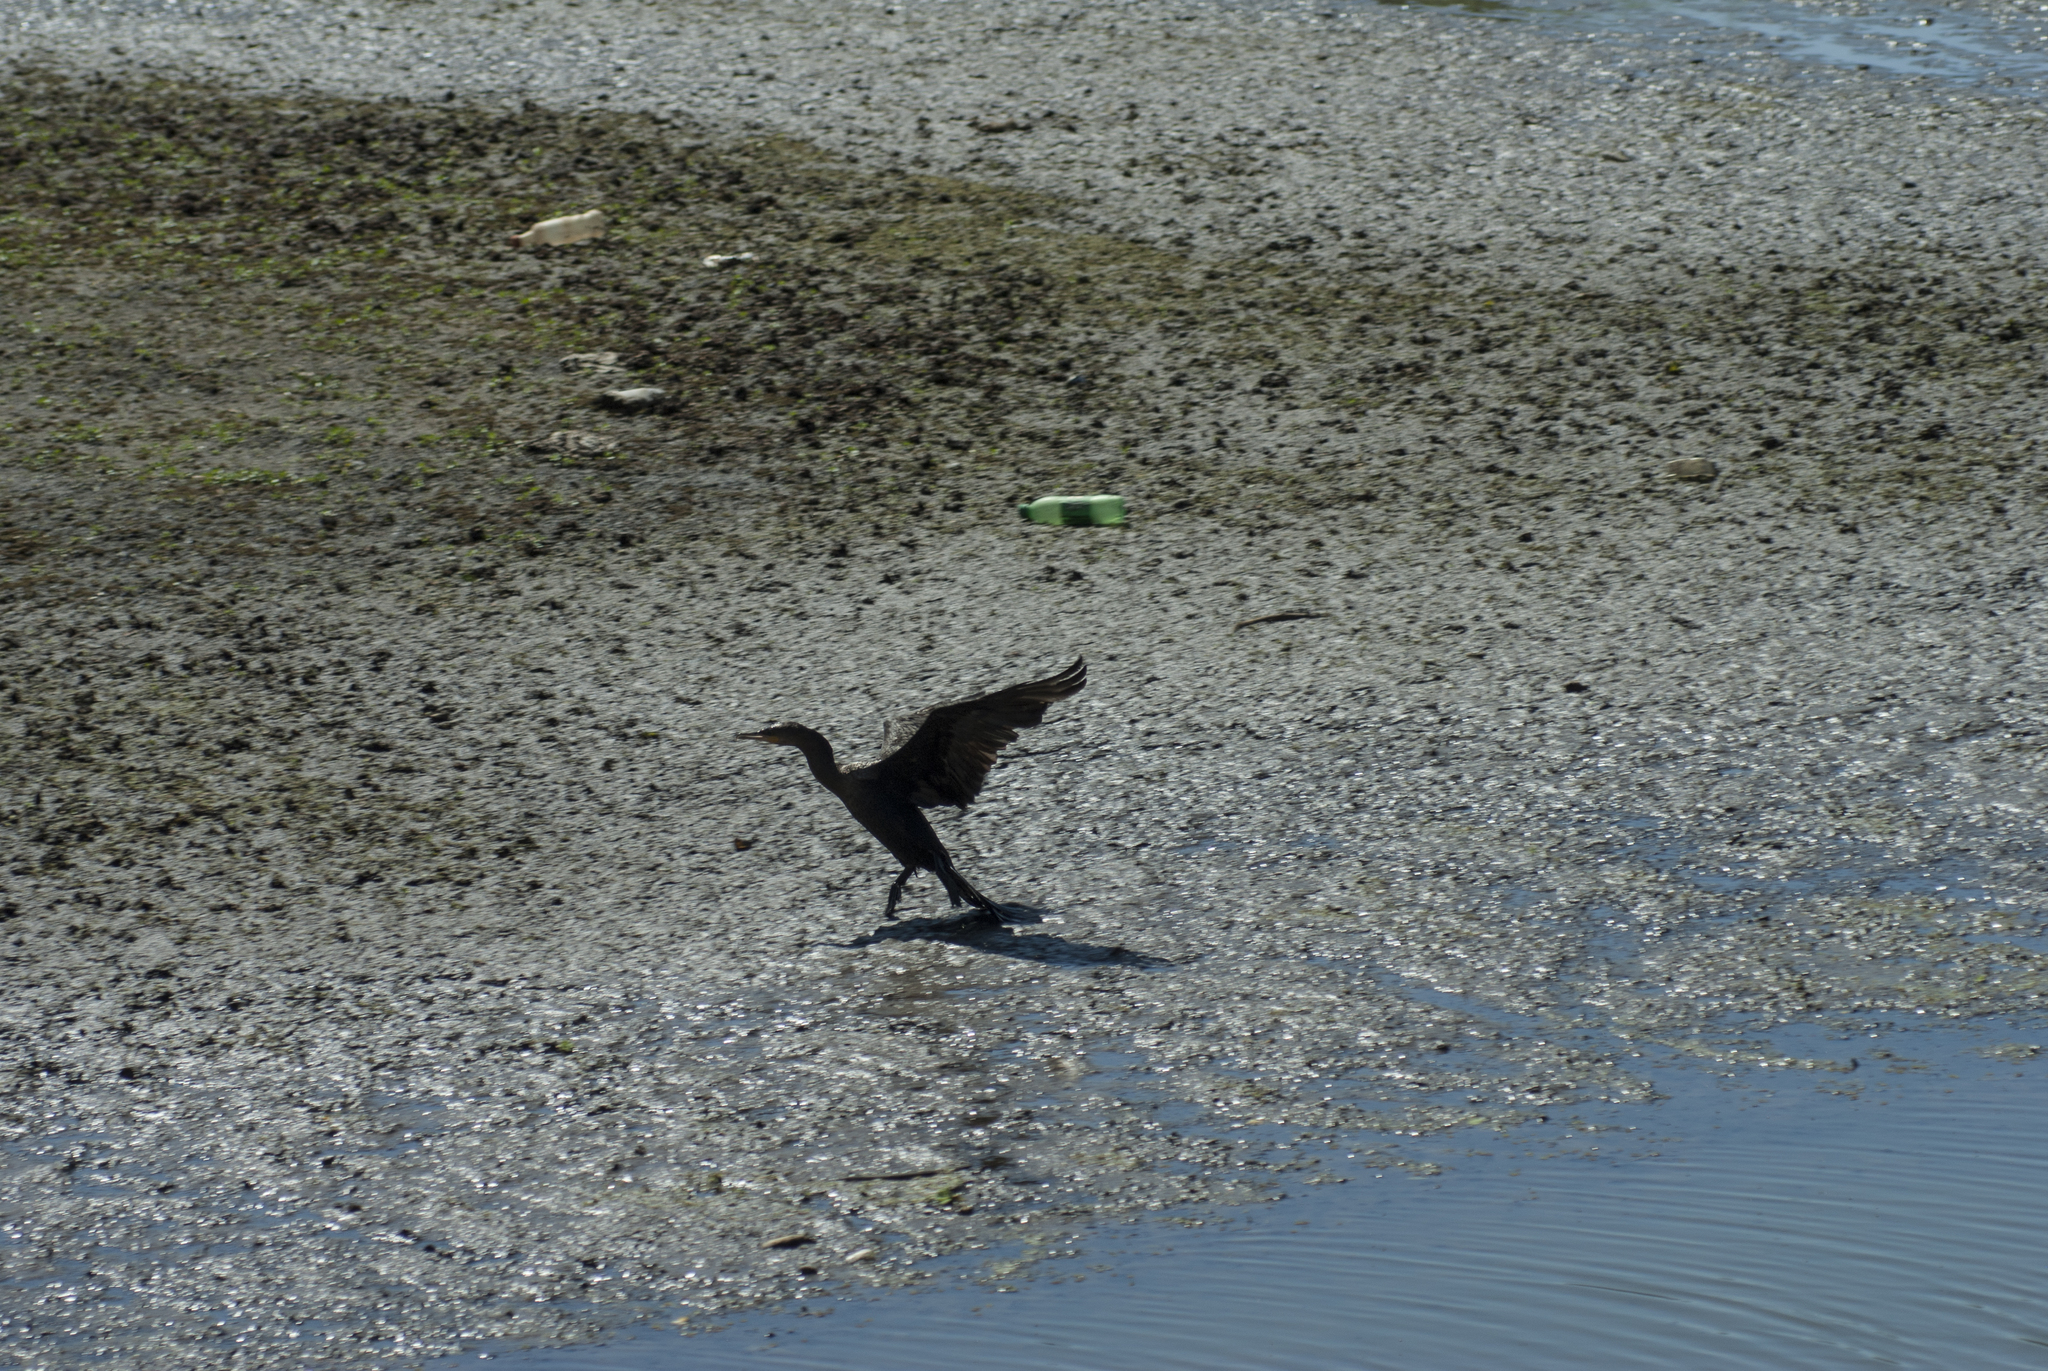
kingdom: Animalia
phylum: Chordata
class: Aves
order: Suliformes
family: Phalacrocoracidae
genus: Phalacrocorax
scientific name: Phalacrocorax brasilianus
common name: Neotropic cormorant
